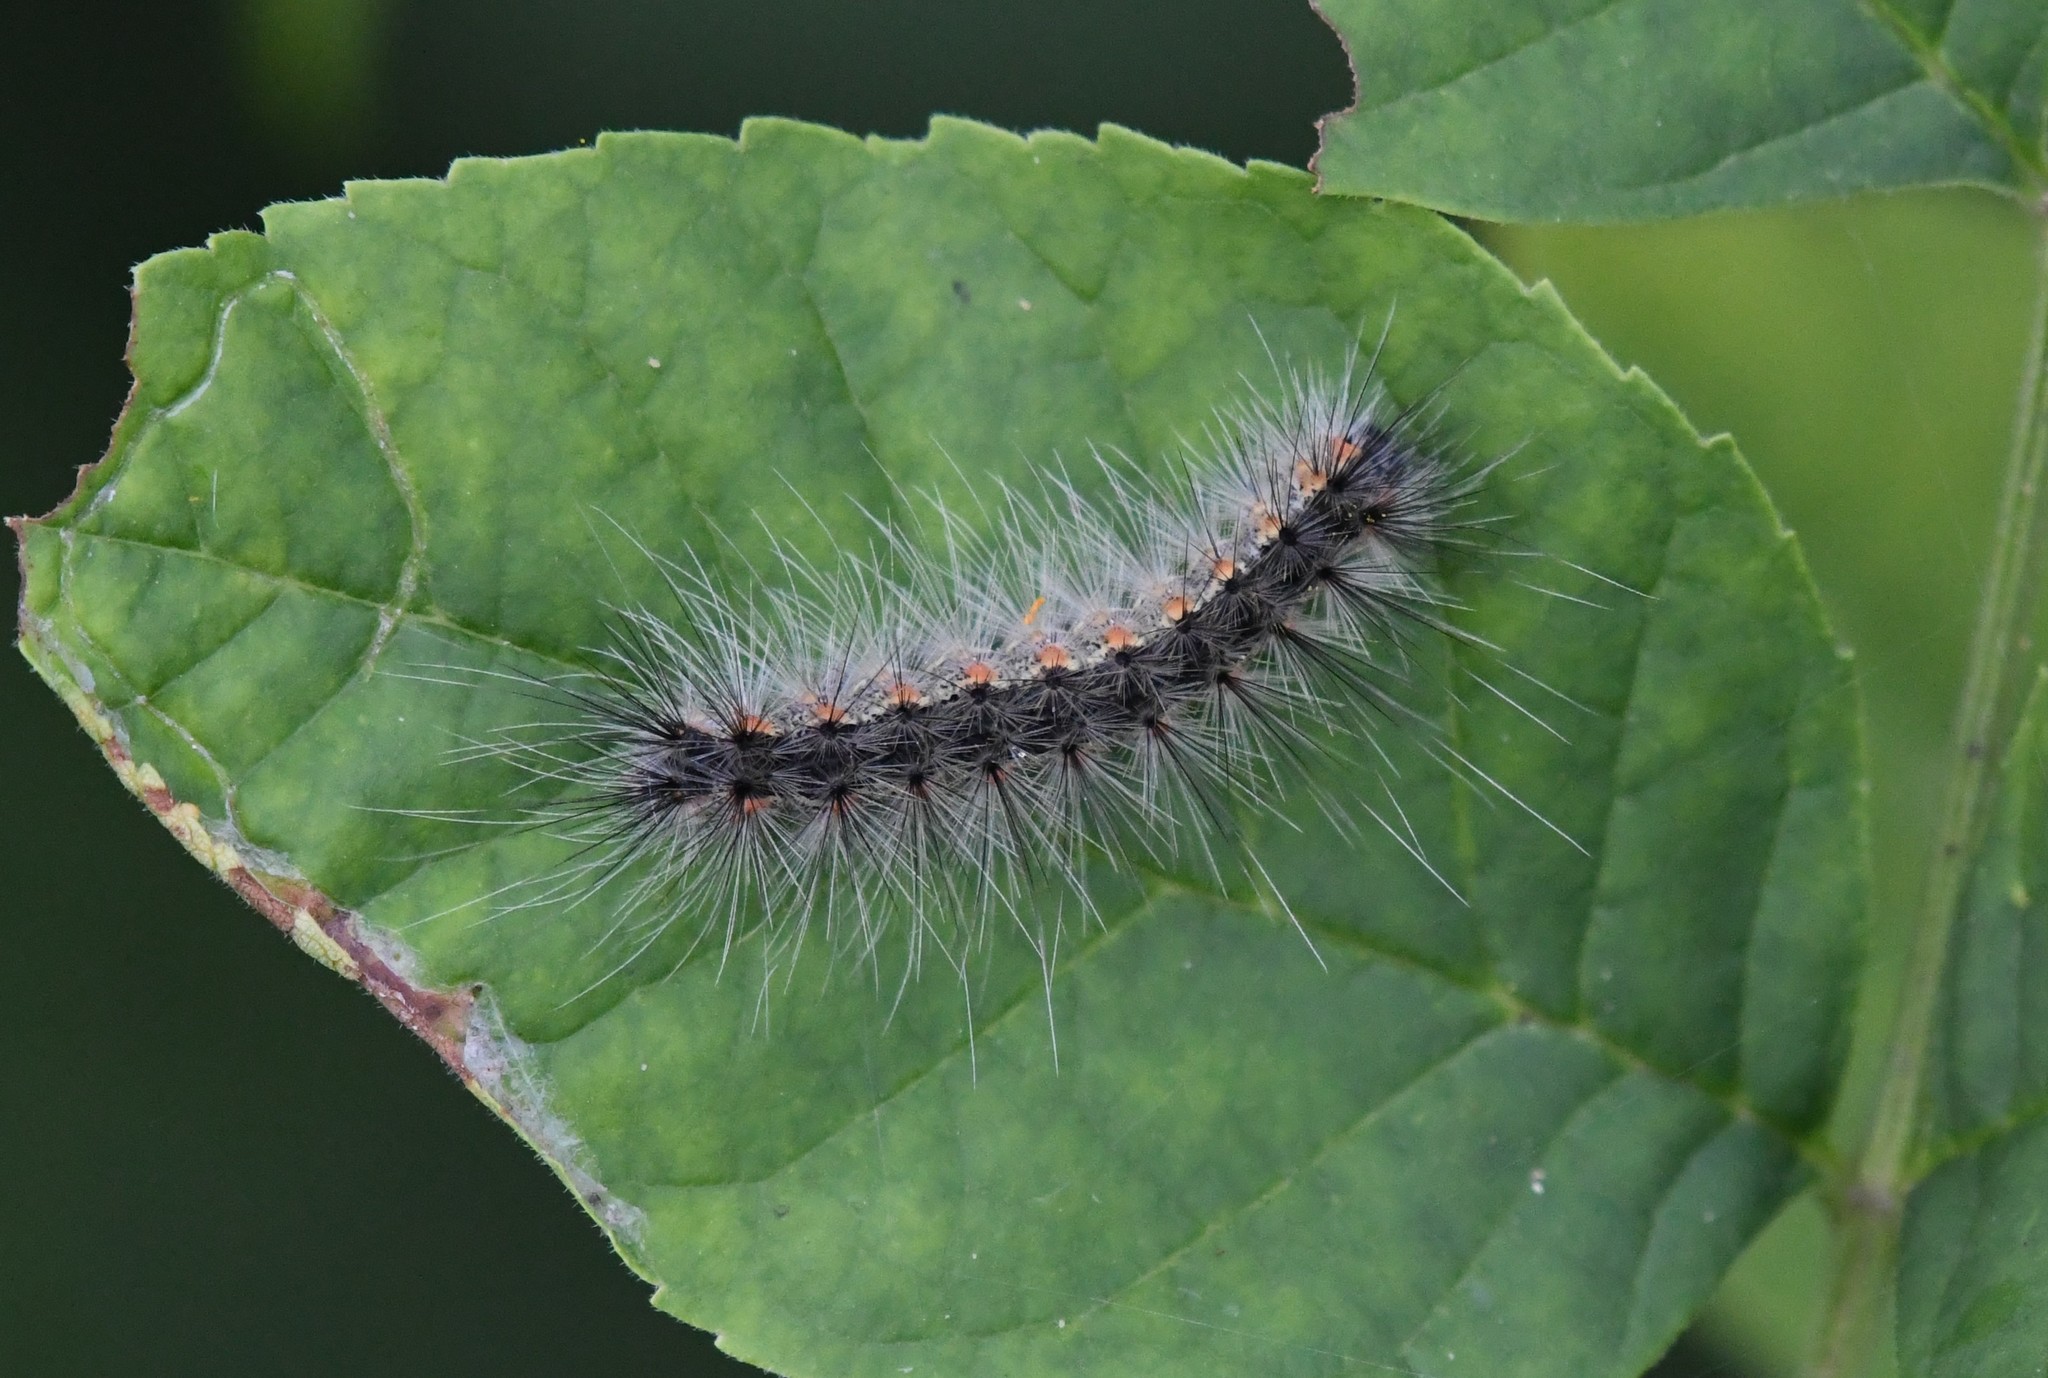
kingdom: Animalia
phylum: Arthropoda
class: Insecta
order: Lepidoptera
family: Erebidae
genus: Hyphantria
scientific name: Hyphantria cunea
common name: American white moth
